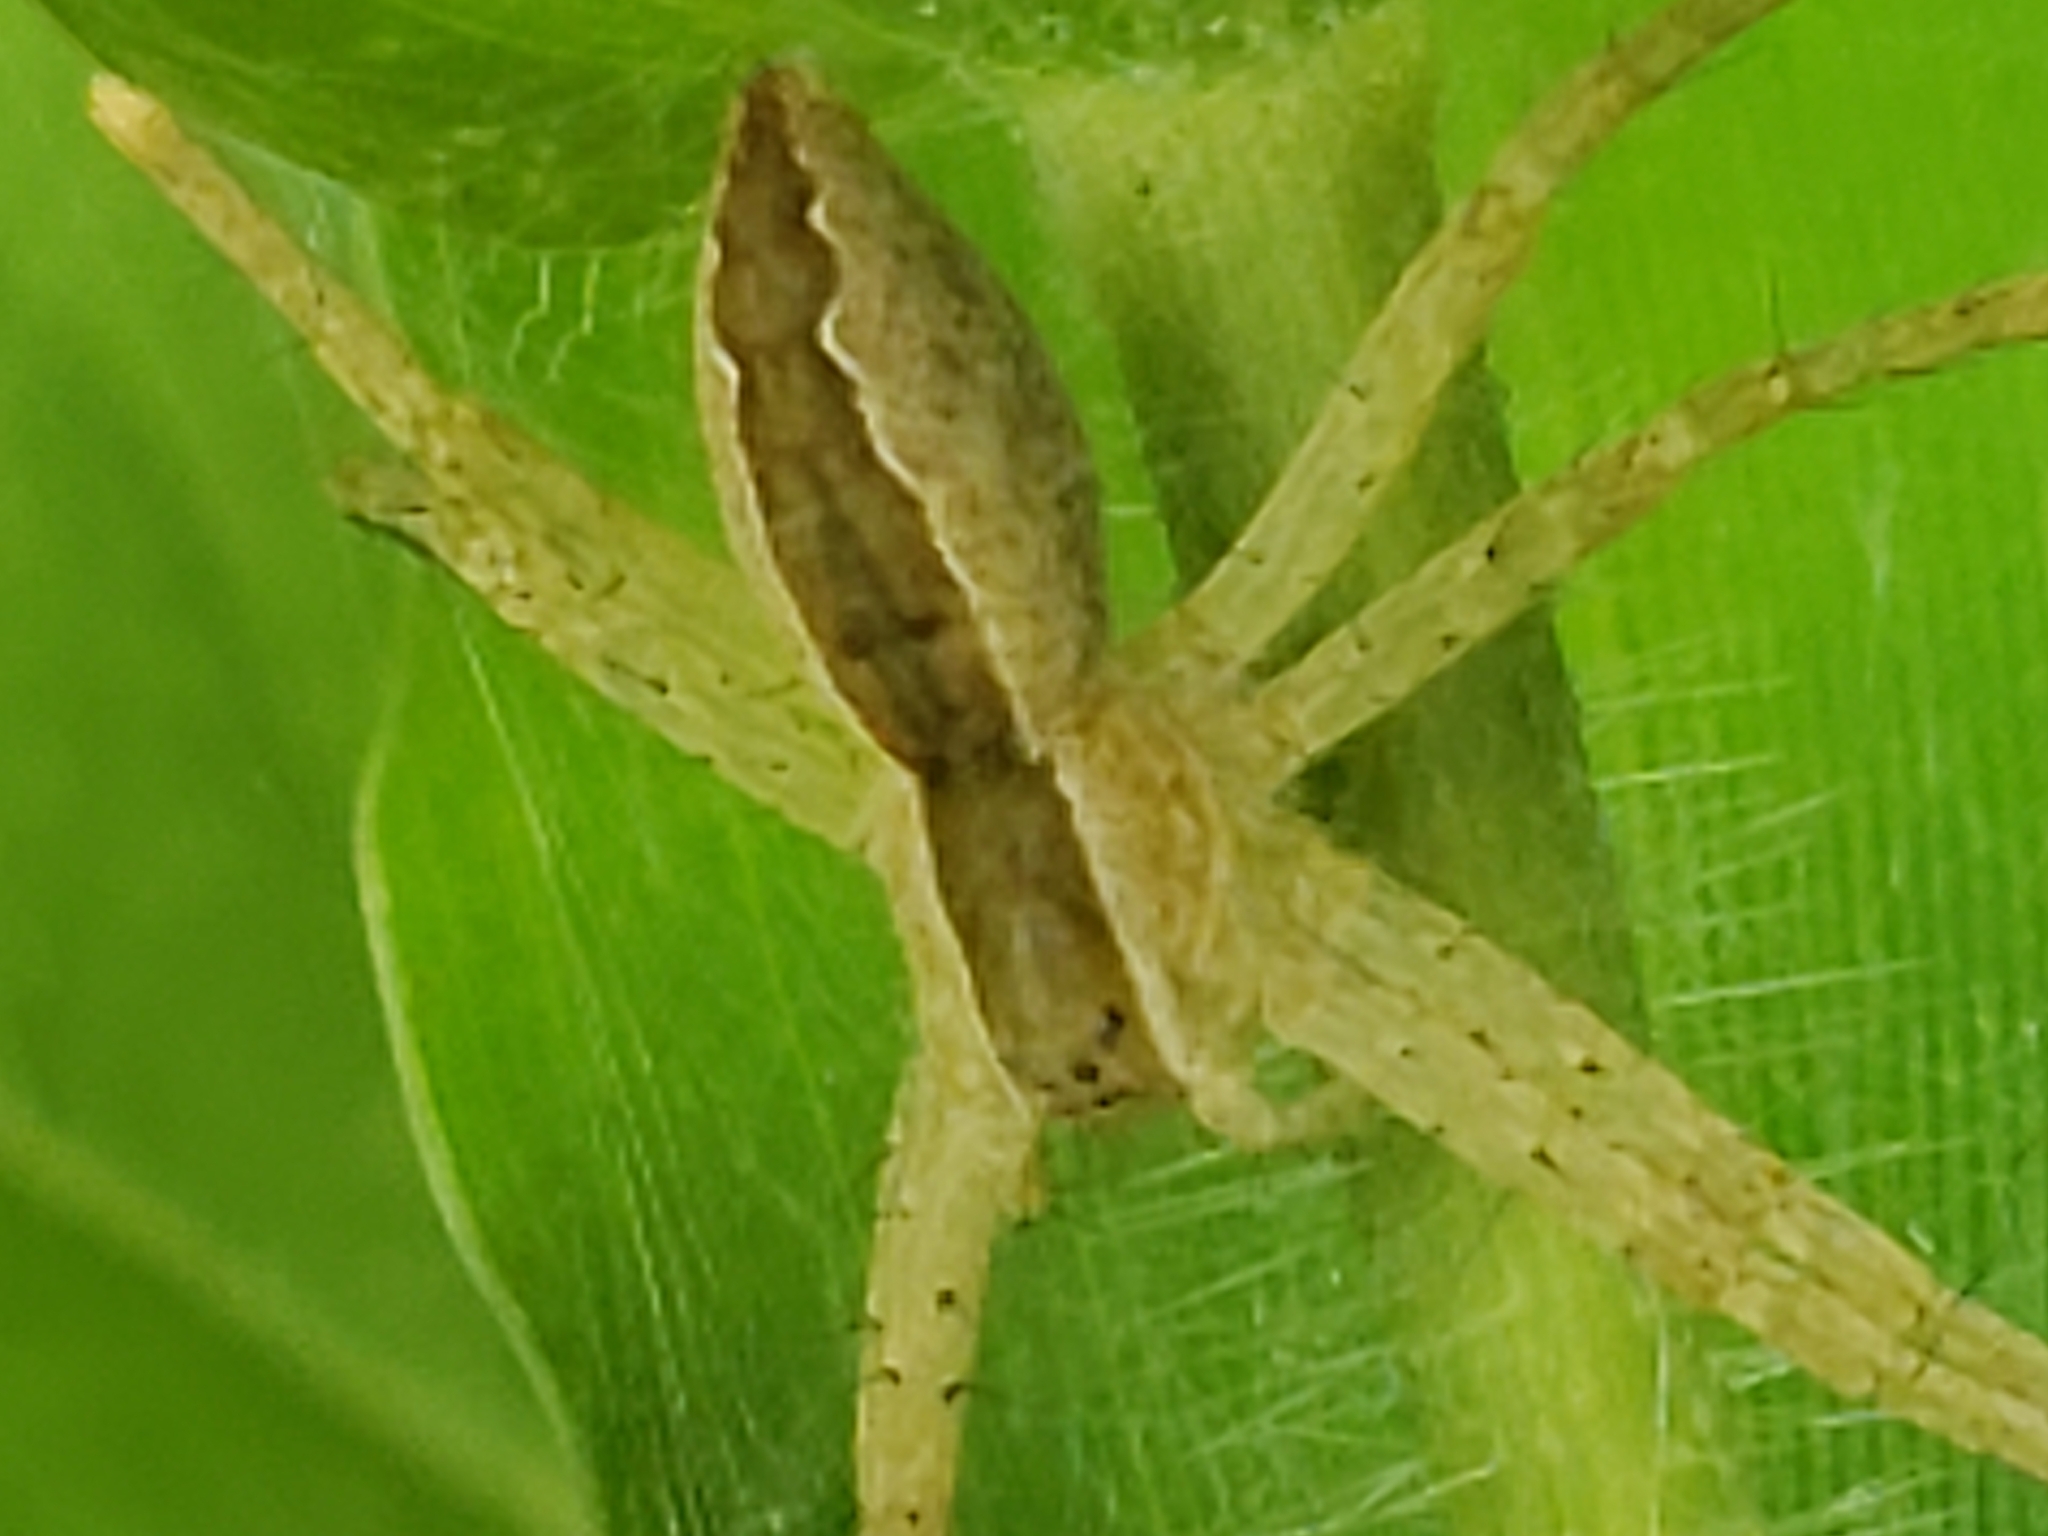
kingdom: Animalia
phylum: Arthropoda
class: Arachnida
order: Araneae
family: Pisauridae
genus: Pisaurina
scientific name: Pisaurina mira
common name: American nursery web spider
